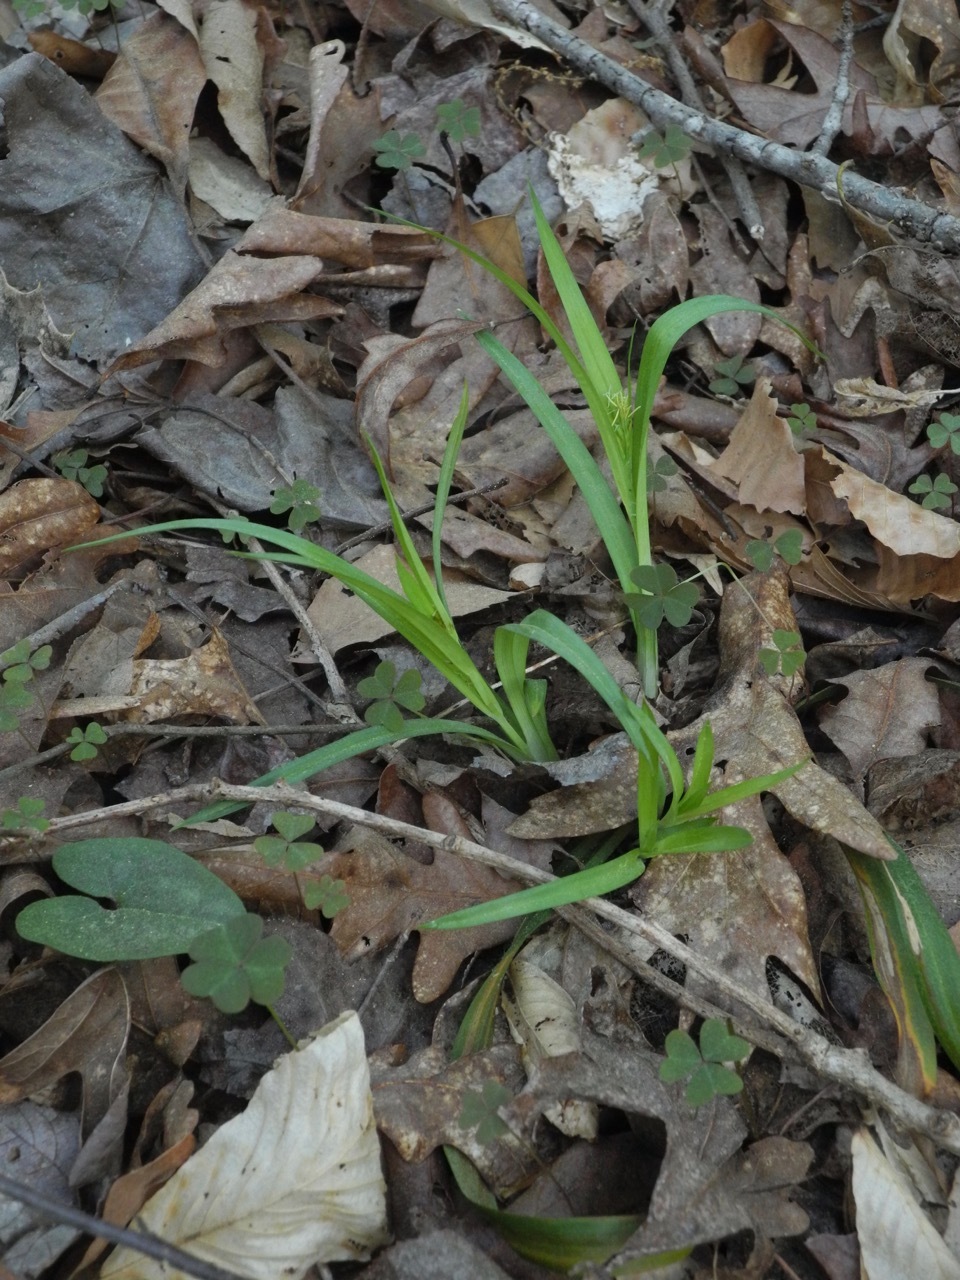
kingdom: Plantae
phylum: Tracheophyta
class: Liliopsida
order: Poales
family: Cyperaceae
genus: Carex
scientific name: Carex blanda
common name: Bland sedge
